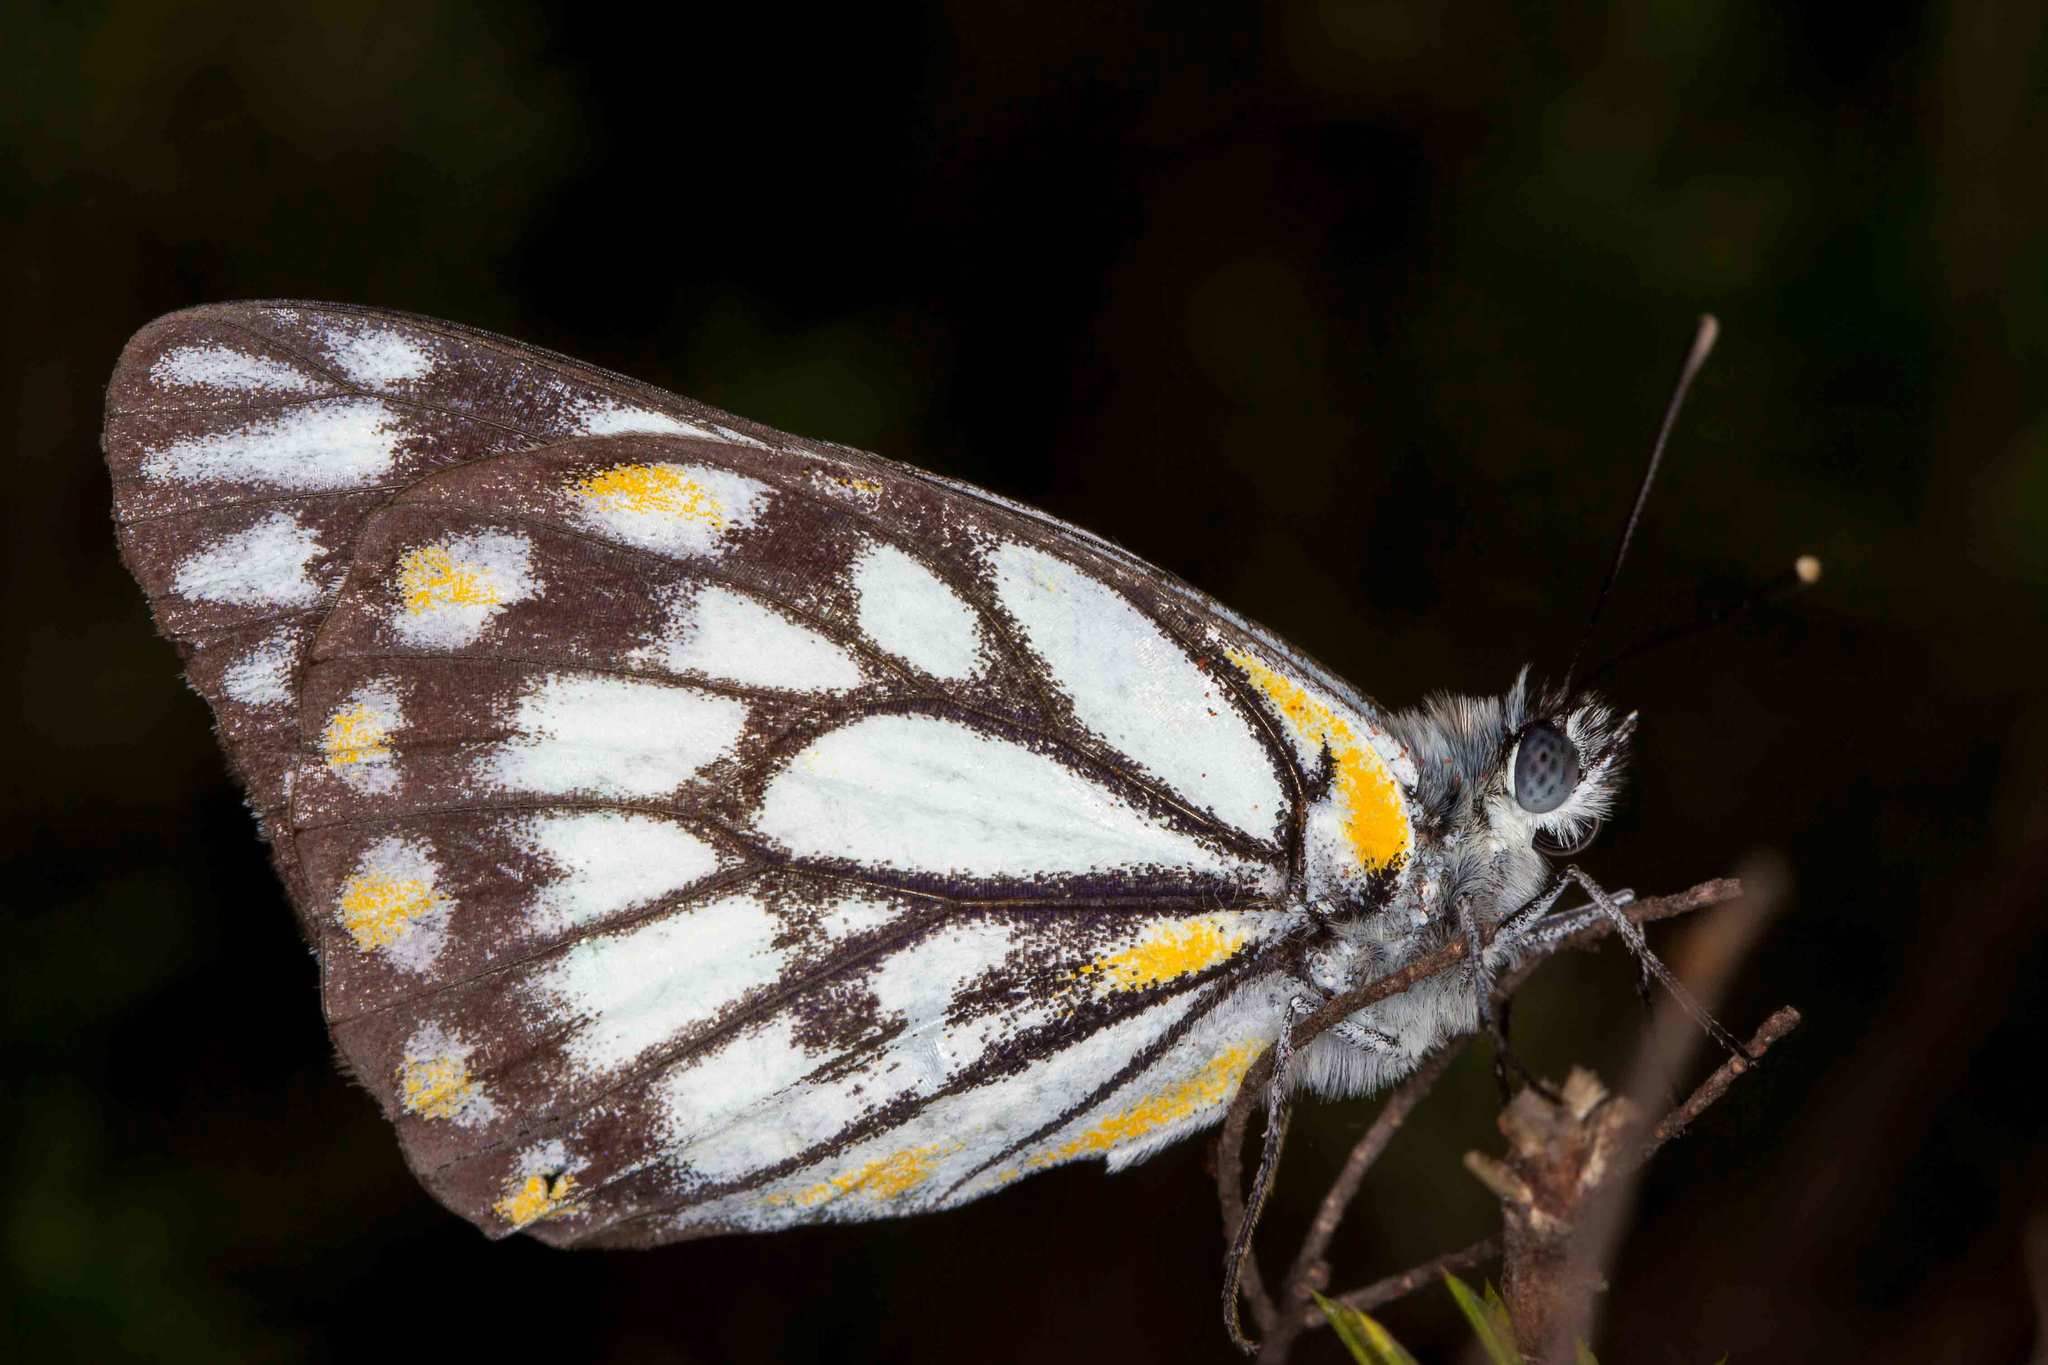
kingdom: Animalia
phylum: Arthropoda
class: Insecta
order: Lepidoptera
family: Pieridae
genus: Belenois
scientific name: Belenois java
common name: Caper white
